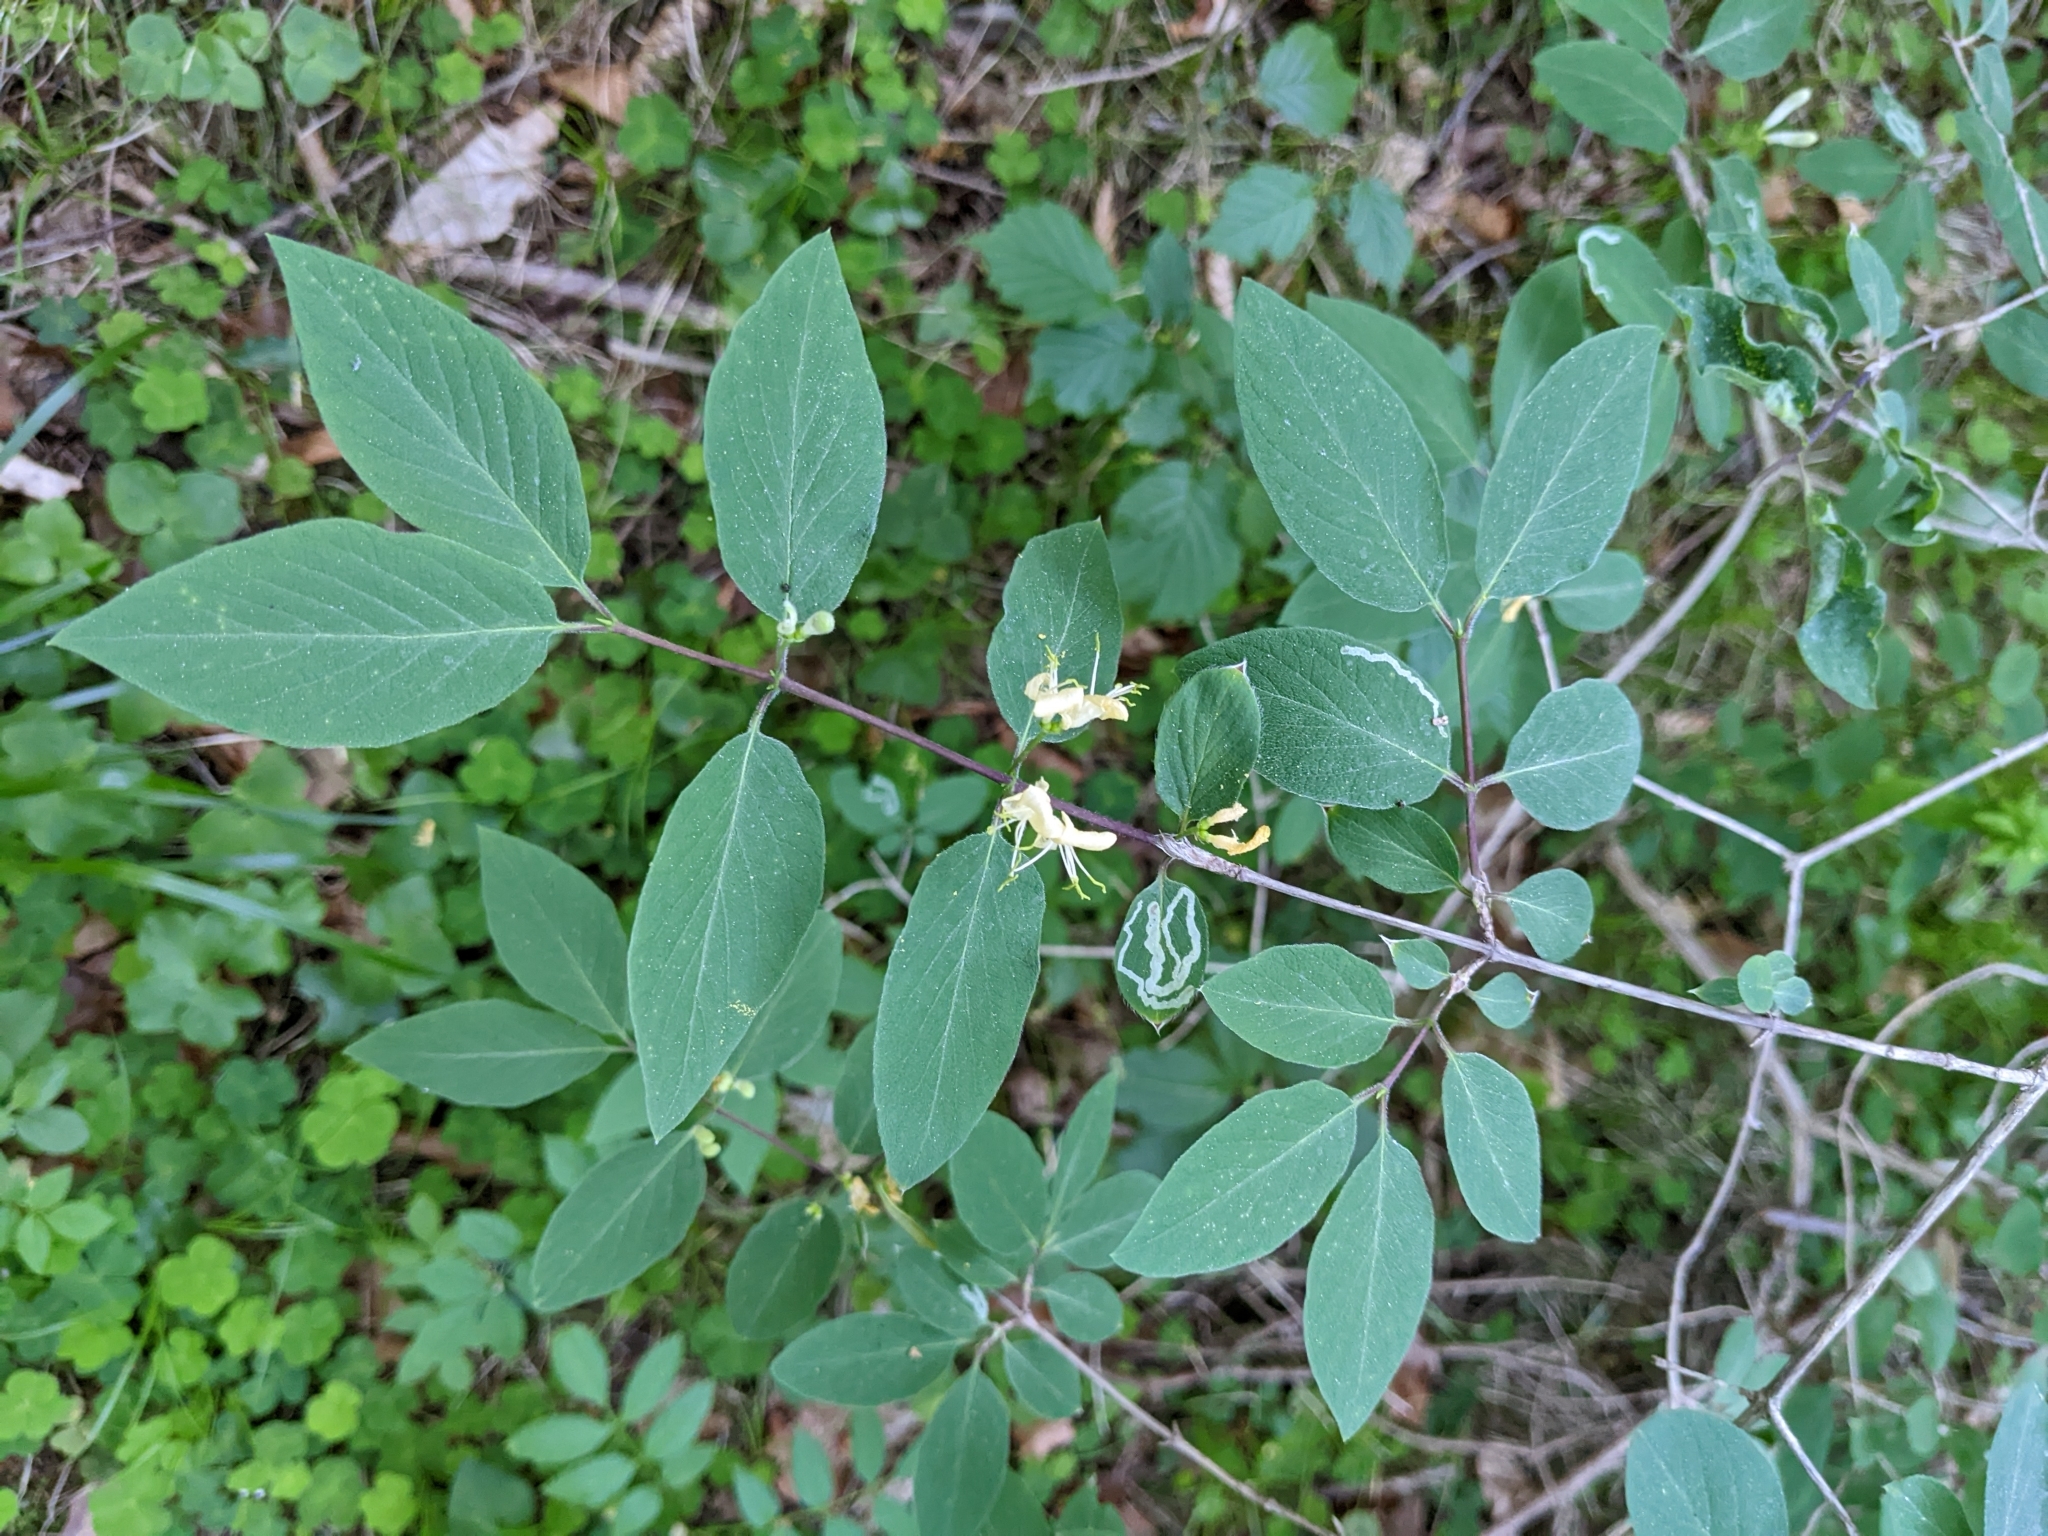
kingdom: Plantae
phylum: Tracheophyta
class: Magnoliopsida
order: Dipsacales
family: Caprifoliaceae
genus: Lonicera
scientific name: Lonicera xylosteum
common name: Fly honeysuckle
